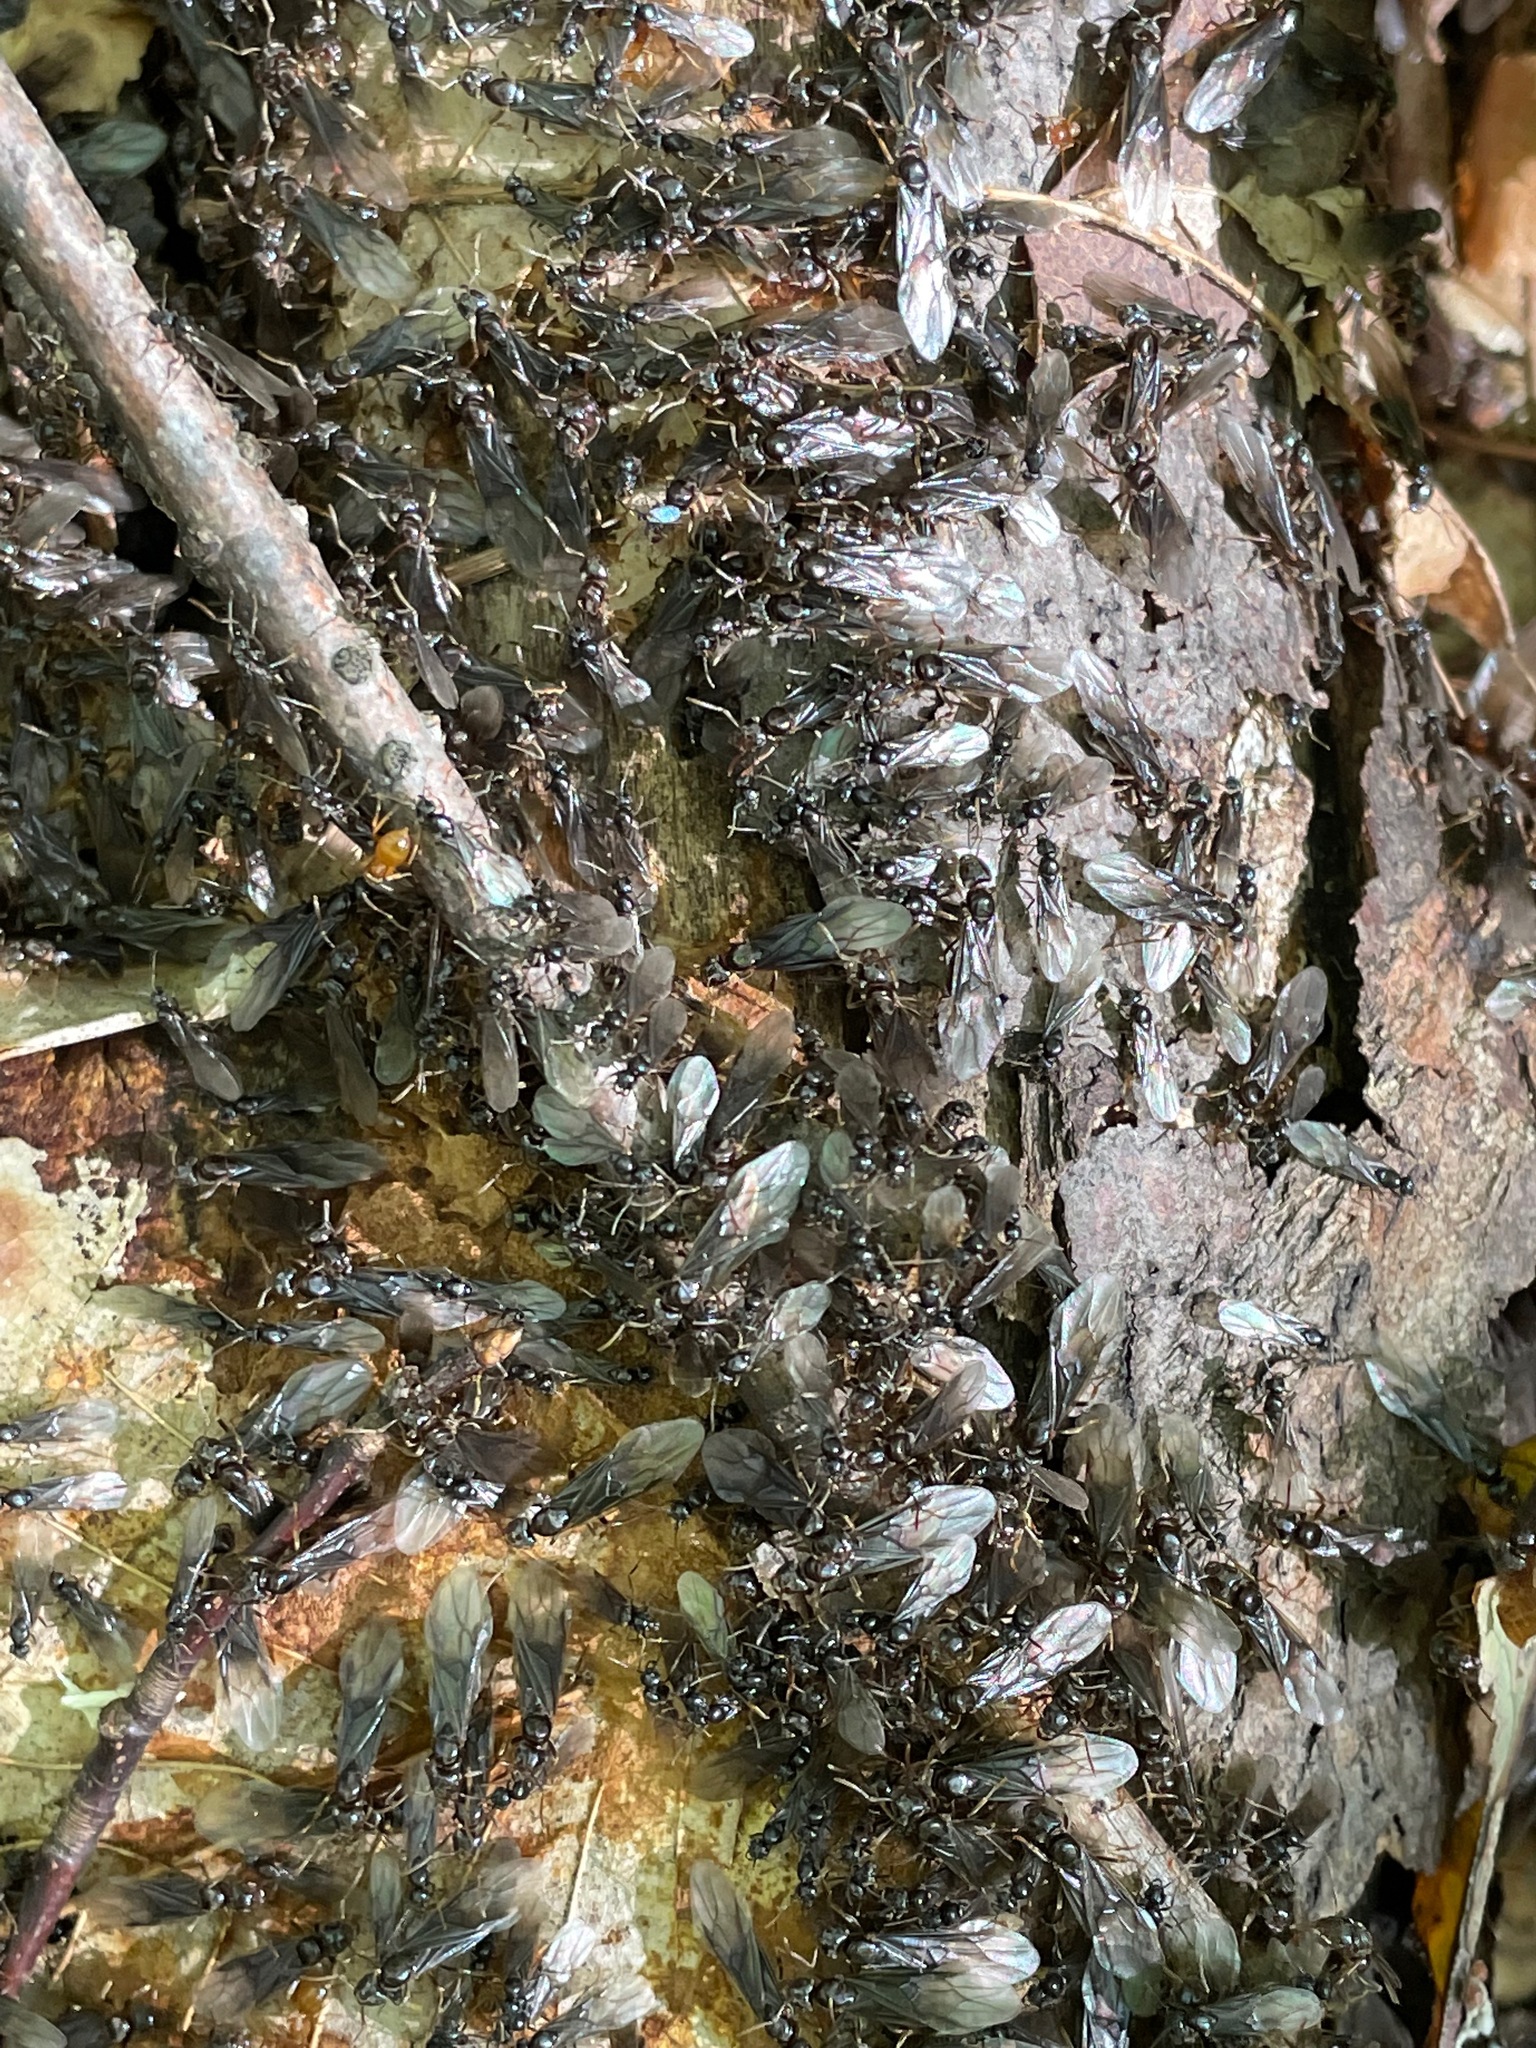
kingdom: Animalia
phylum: Arthropoda
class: Insecta
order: Hymenoptera
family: Formicidae
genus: Lasius
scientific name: Lasius aphidicola
